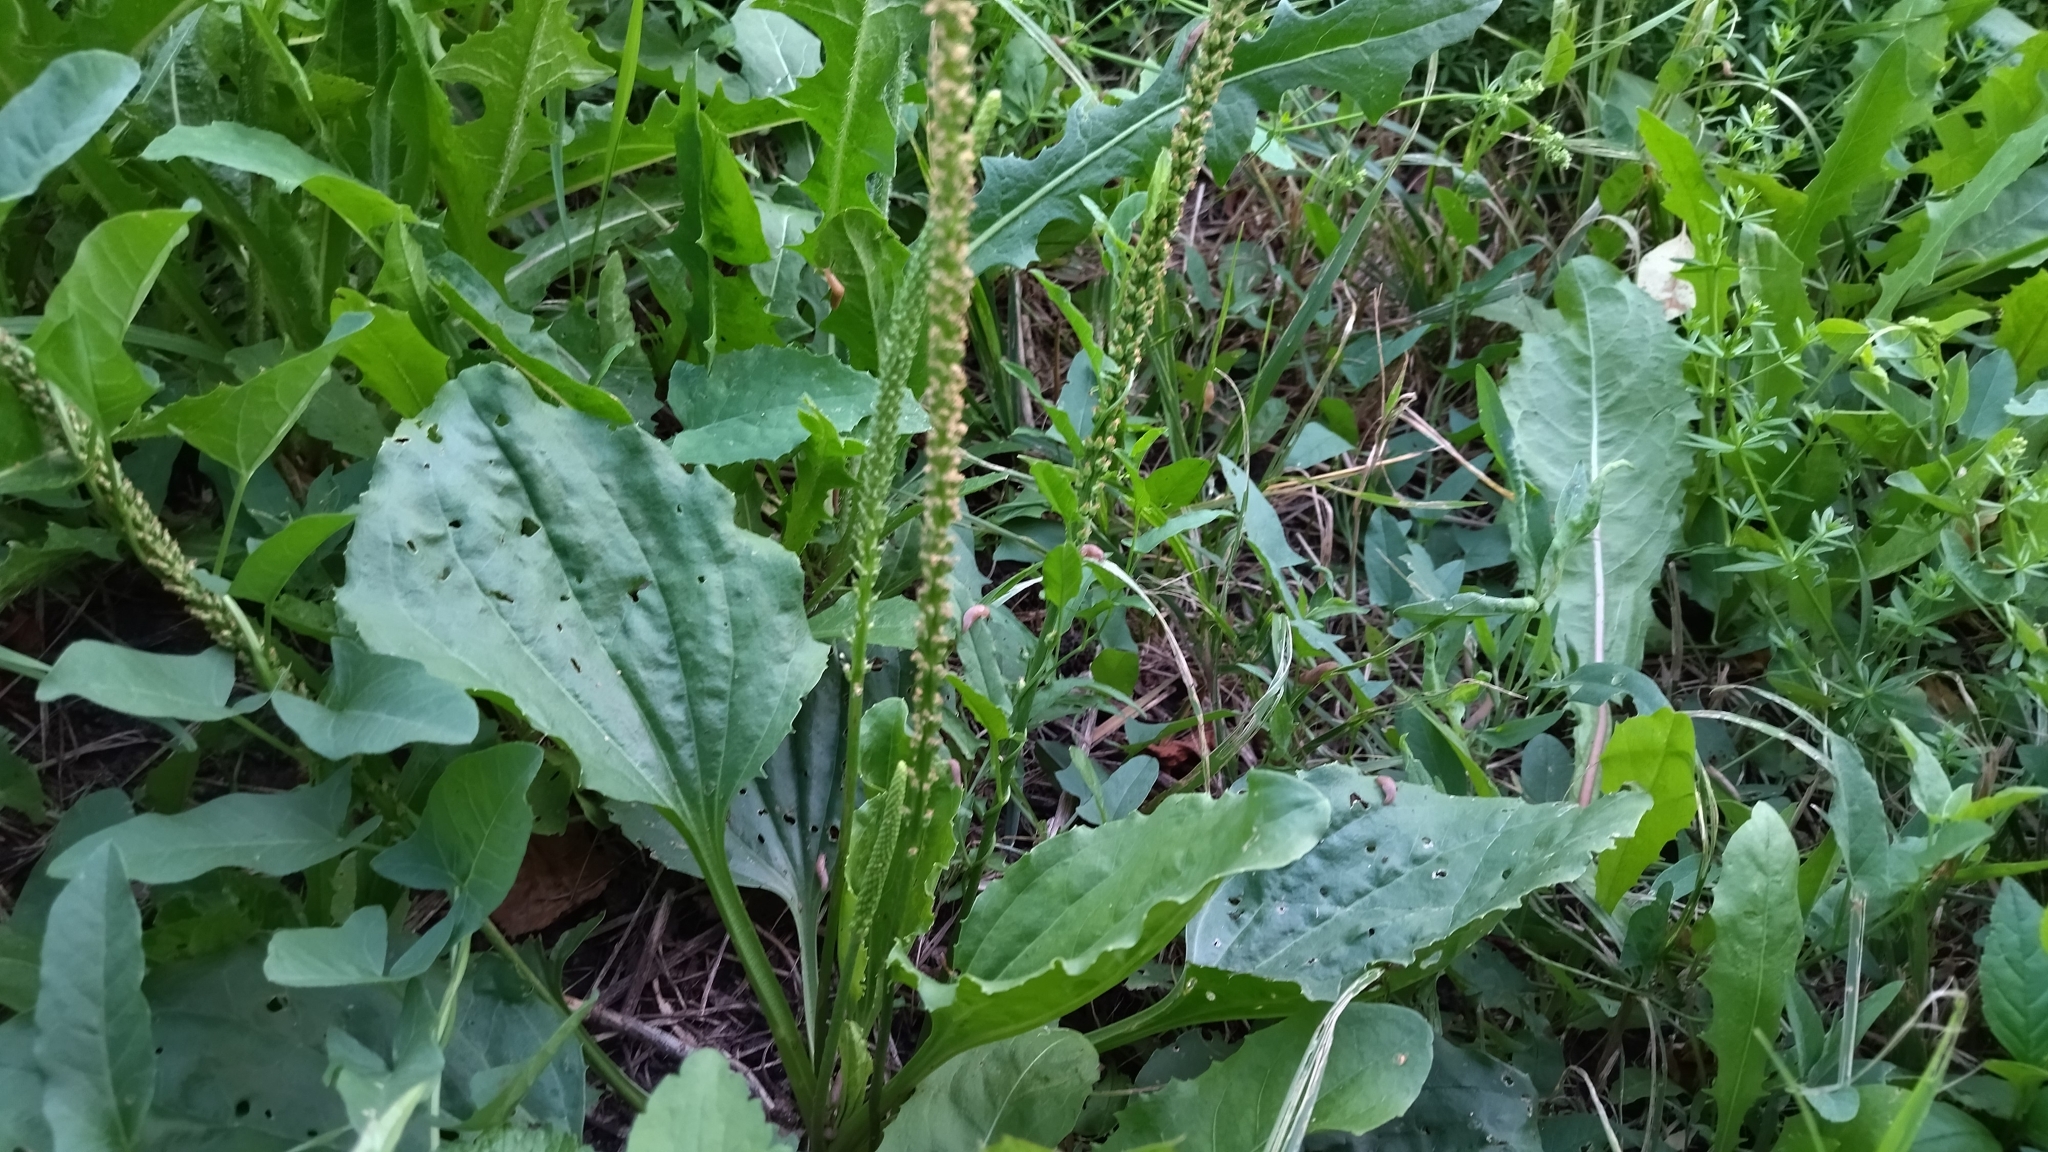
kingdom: Plantae
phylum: Tracheophyta
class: Magnoliopsida
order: Lamiales
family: Plantaginaceae
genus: Plantago
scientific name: Plantago major
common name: Common plantain
